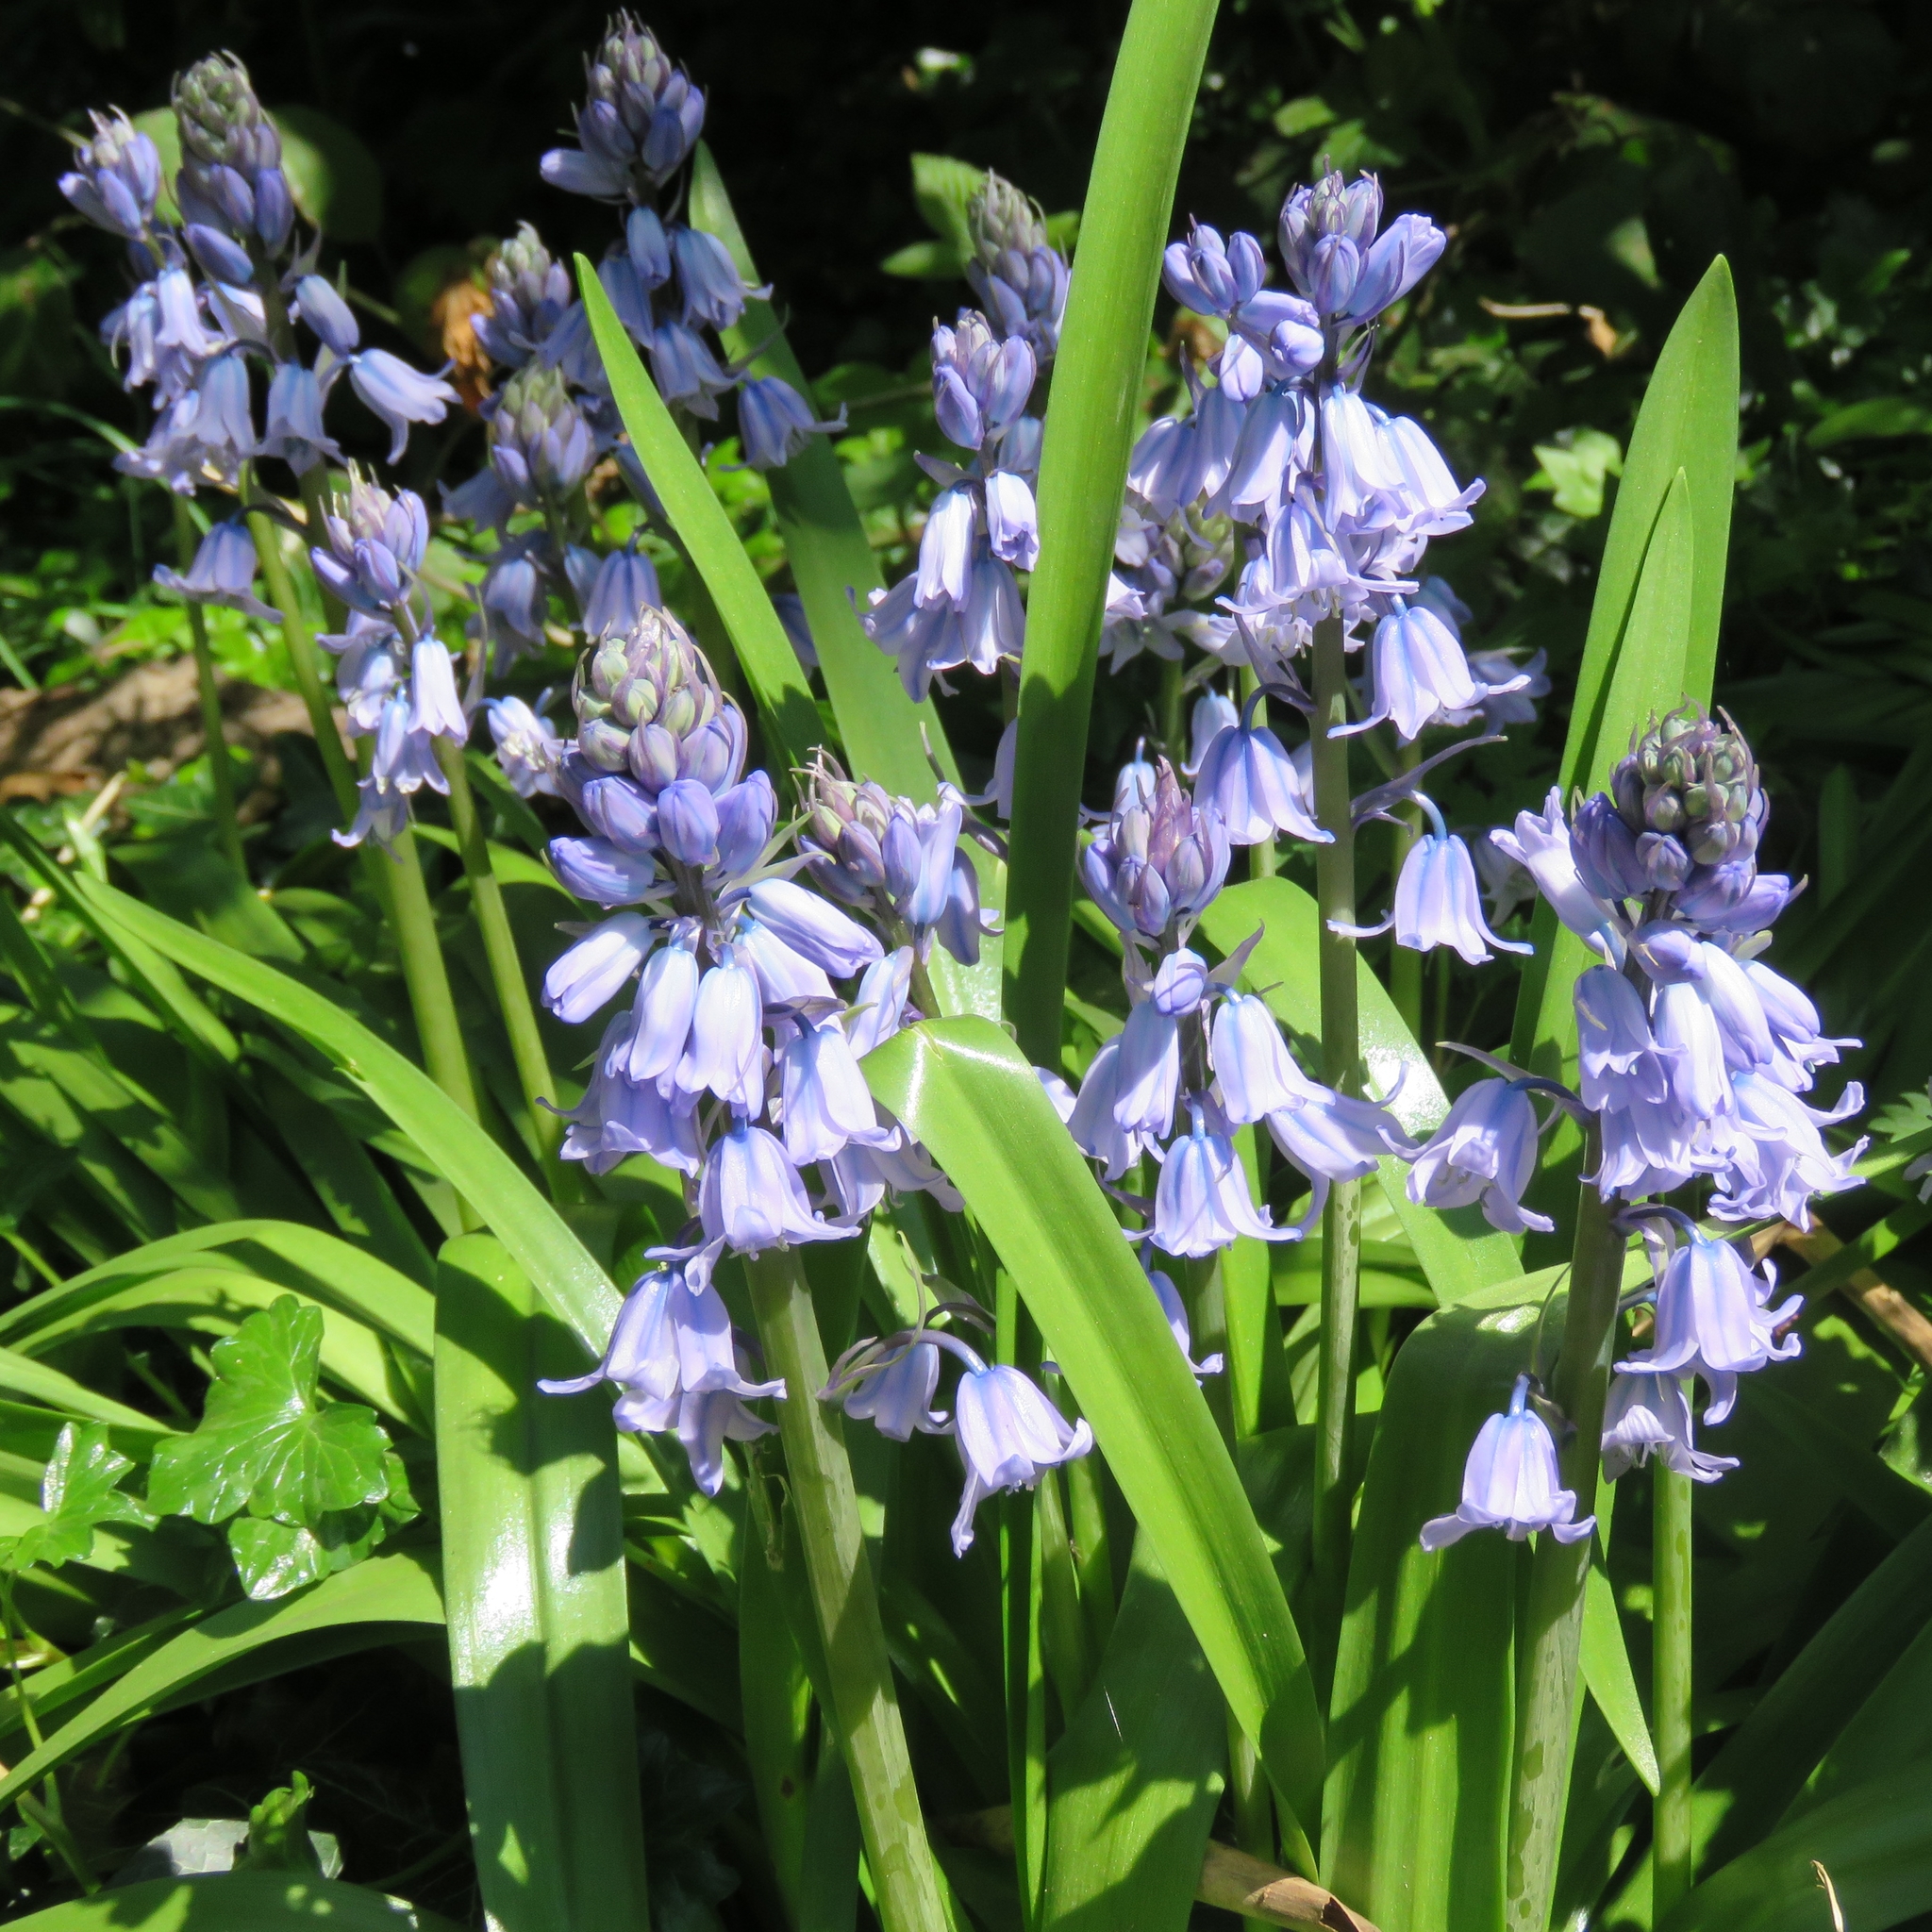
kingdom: Plantae
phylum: Tracheophyta
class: Liliopsida
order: Asparagales
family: Asparagaceae
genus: Hyacinthoides
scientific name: Hyacinthoides hispanica
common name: Spanish bluebell
